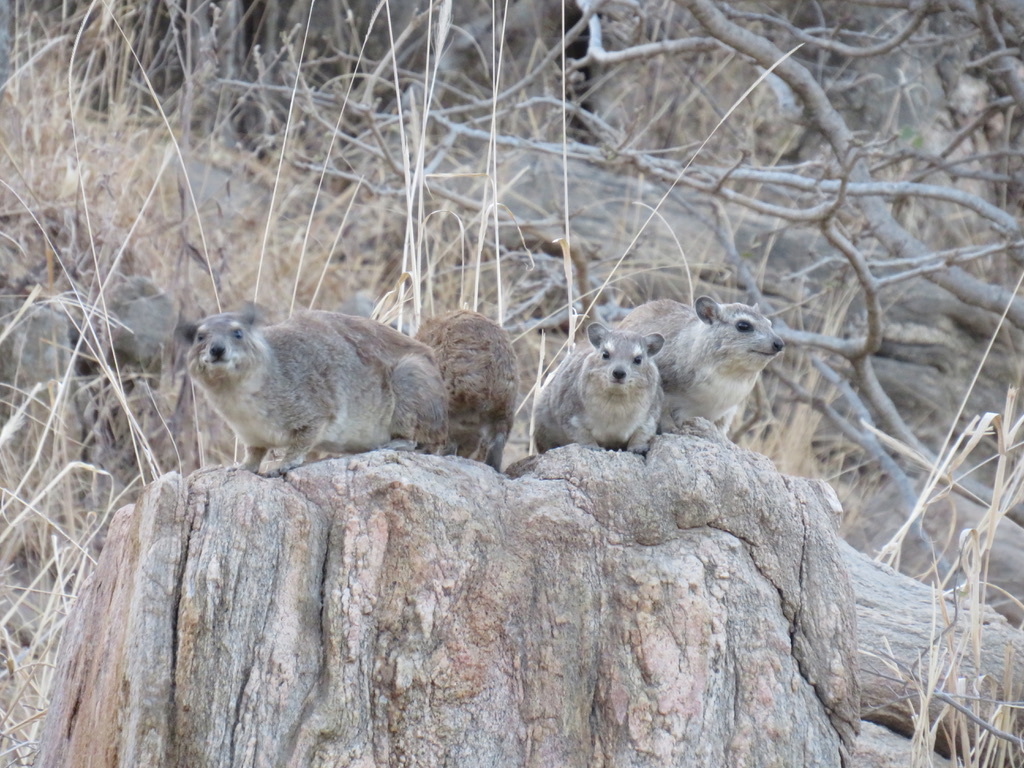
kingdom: Animalia
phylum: Chordata
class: Mammalia
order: Hyracoidea
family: Procaviidae
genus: Heterohyrax
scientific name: Heterohyrax brucei
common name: Bush hyrax
